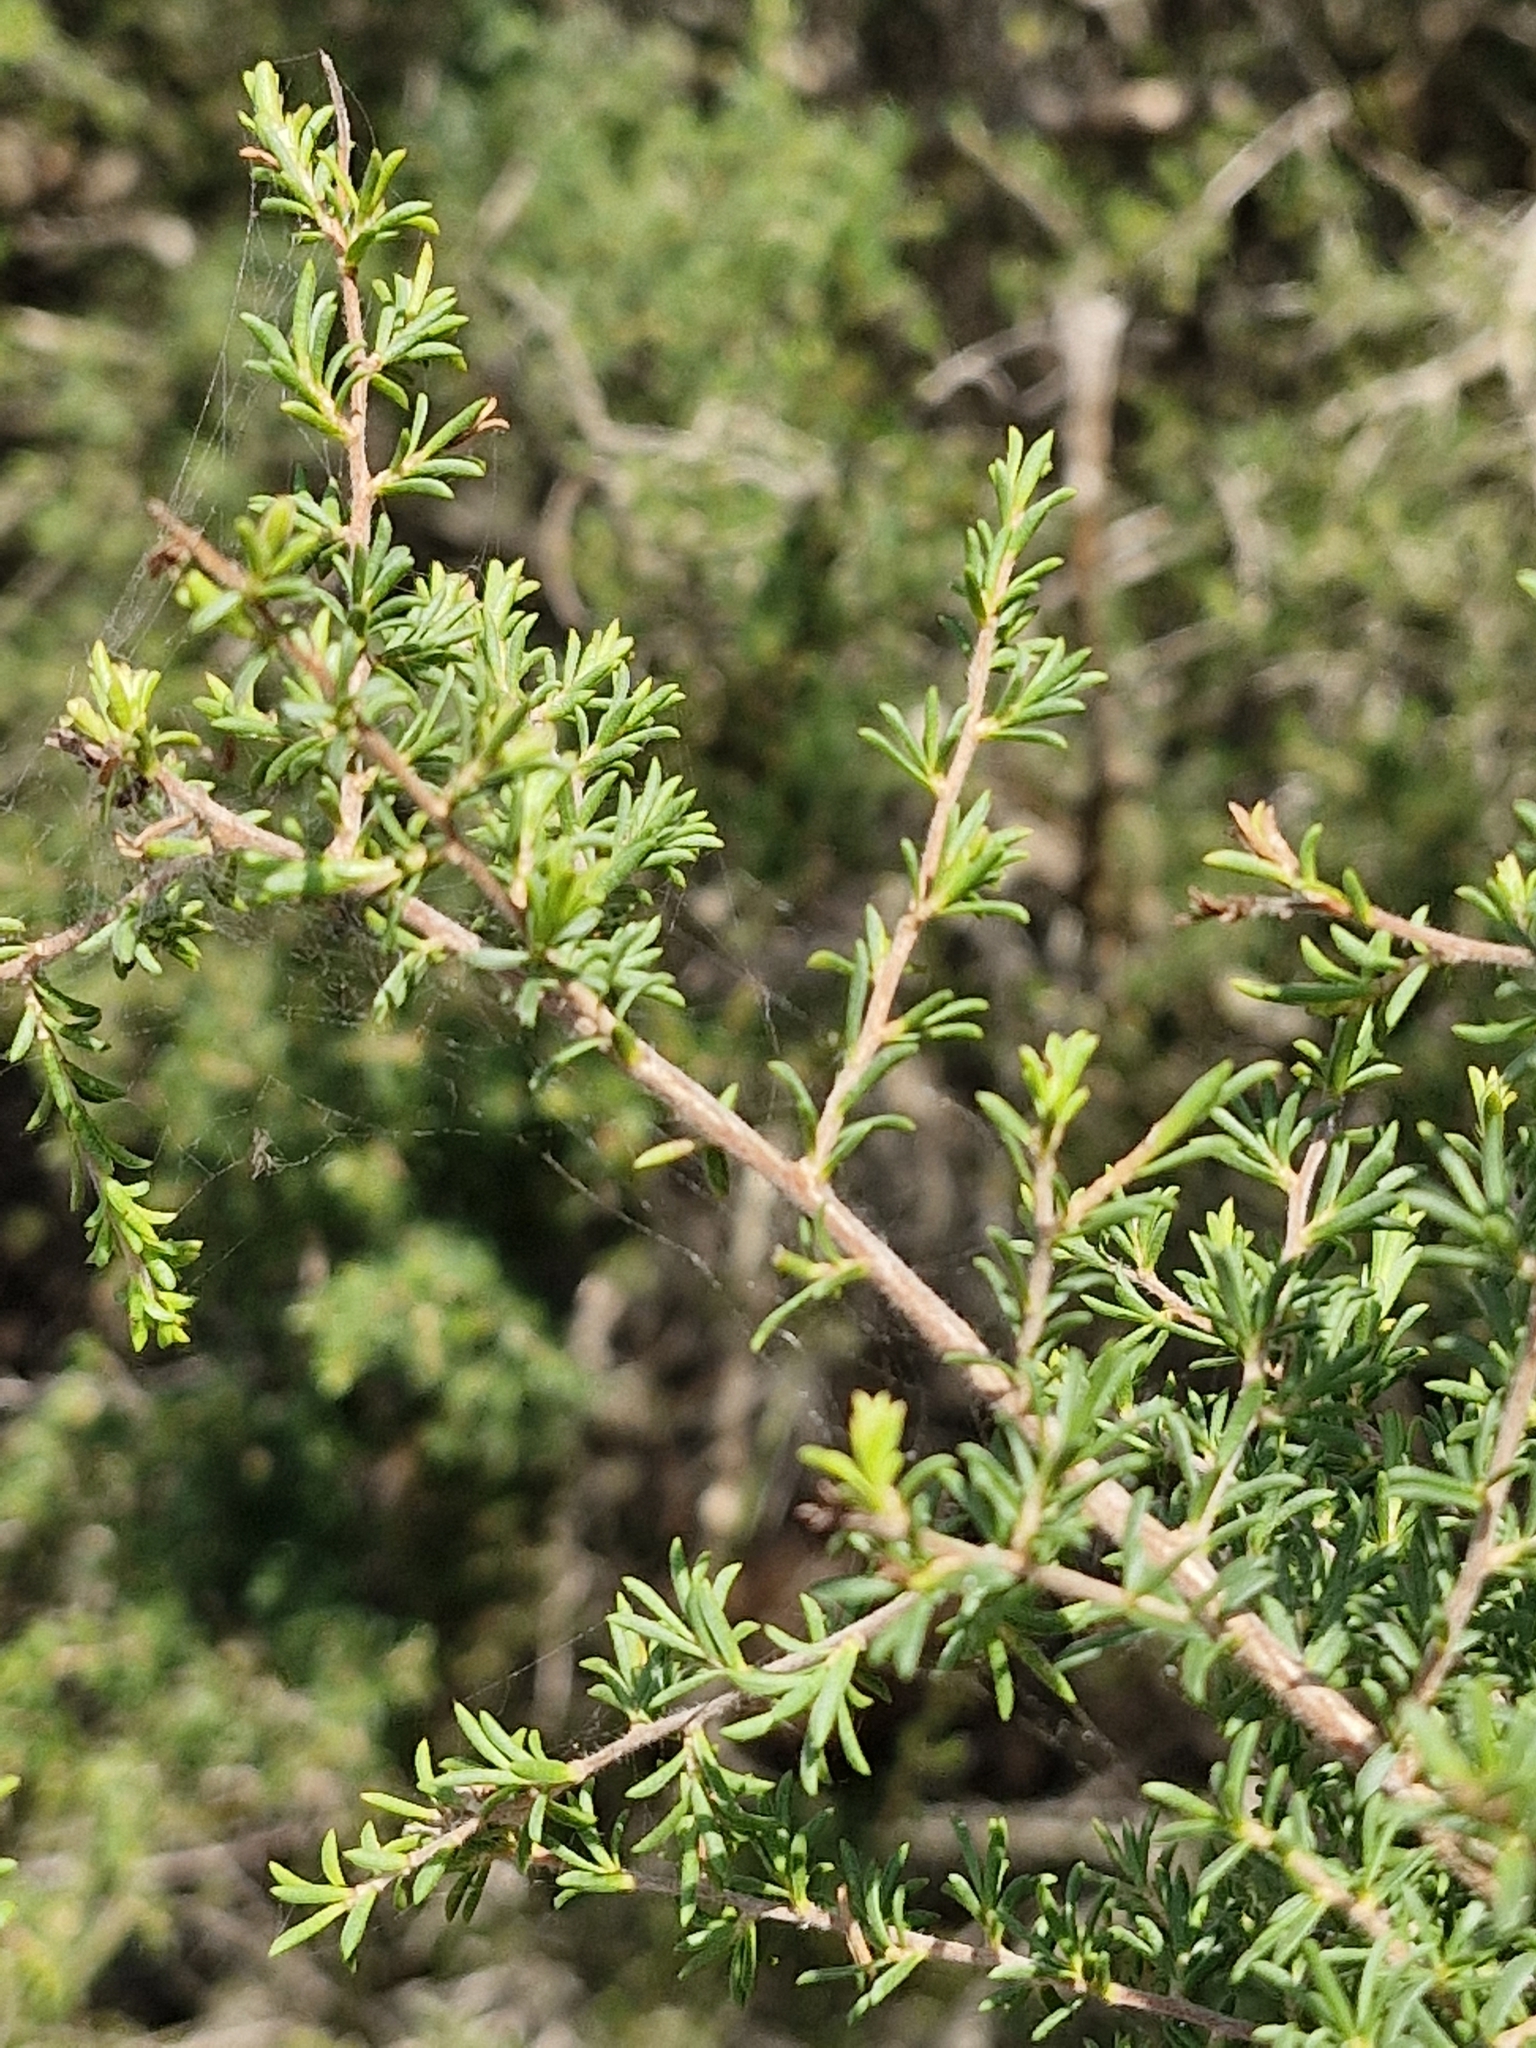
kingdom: Plantae
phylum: Tracheophyta
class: Magnoliopsida
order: Myrtales
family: Myrtaceae
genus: Kunzea
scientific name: Kunzea ambigua
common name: Tickbush
